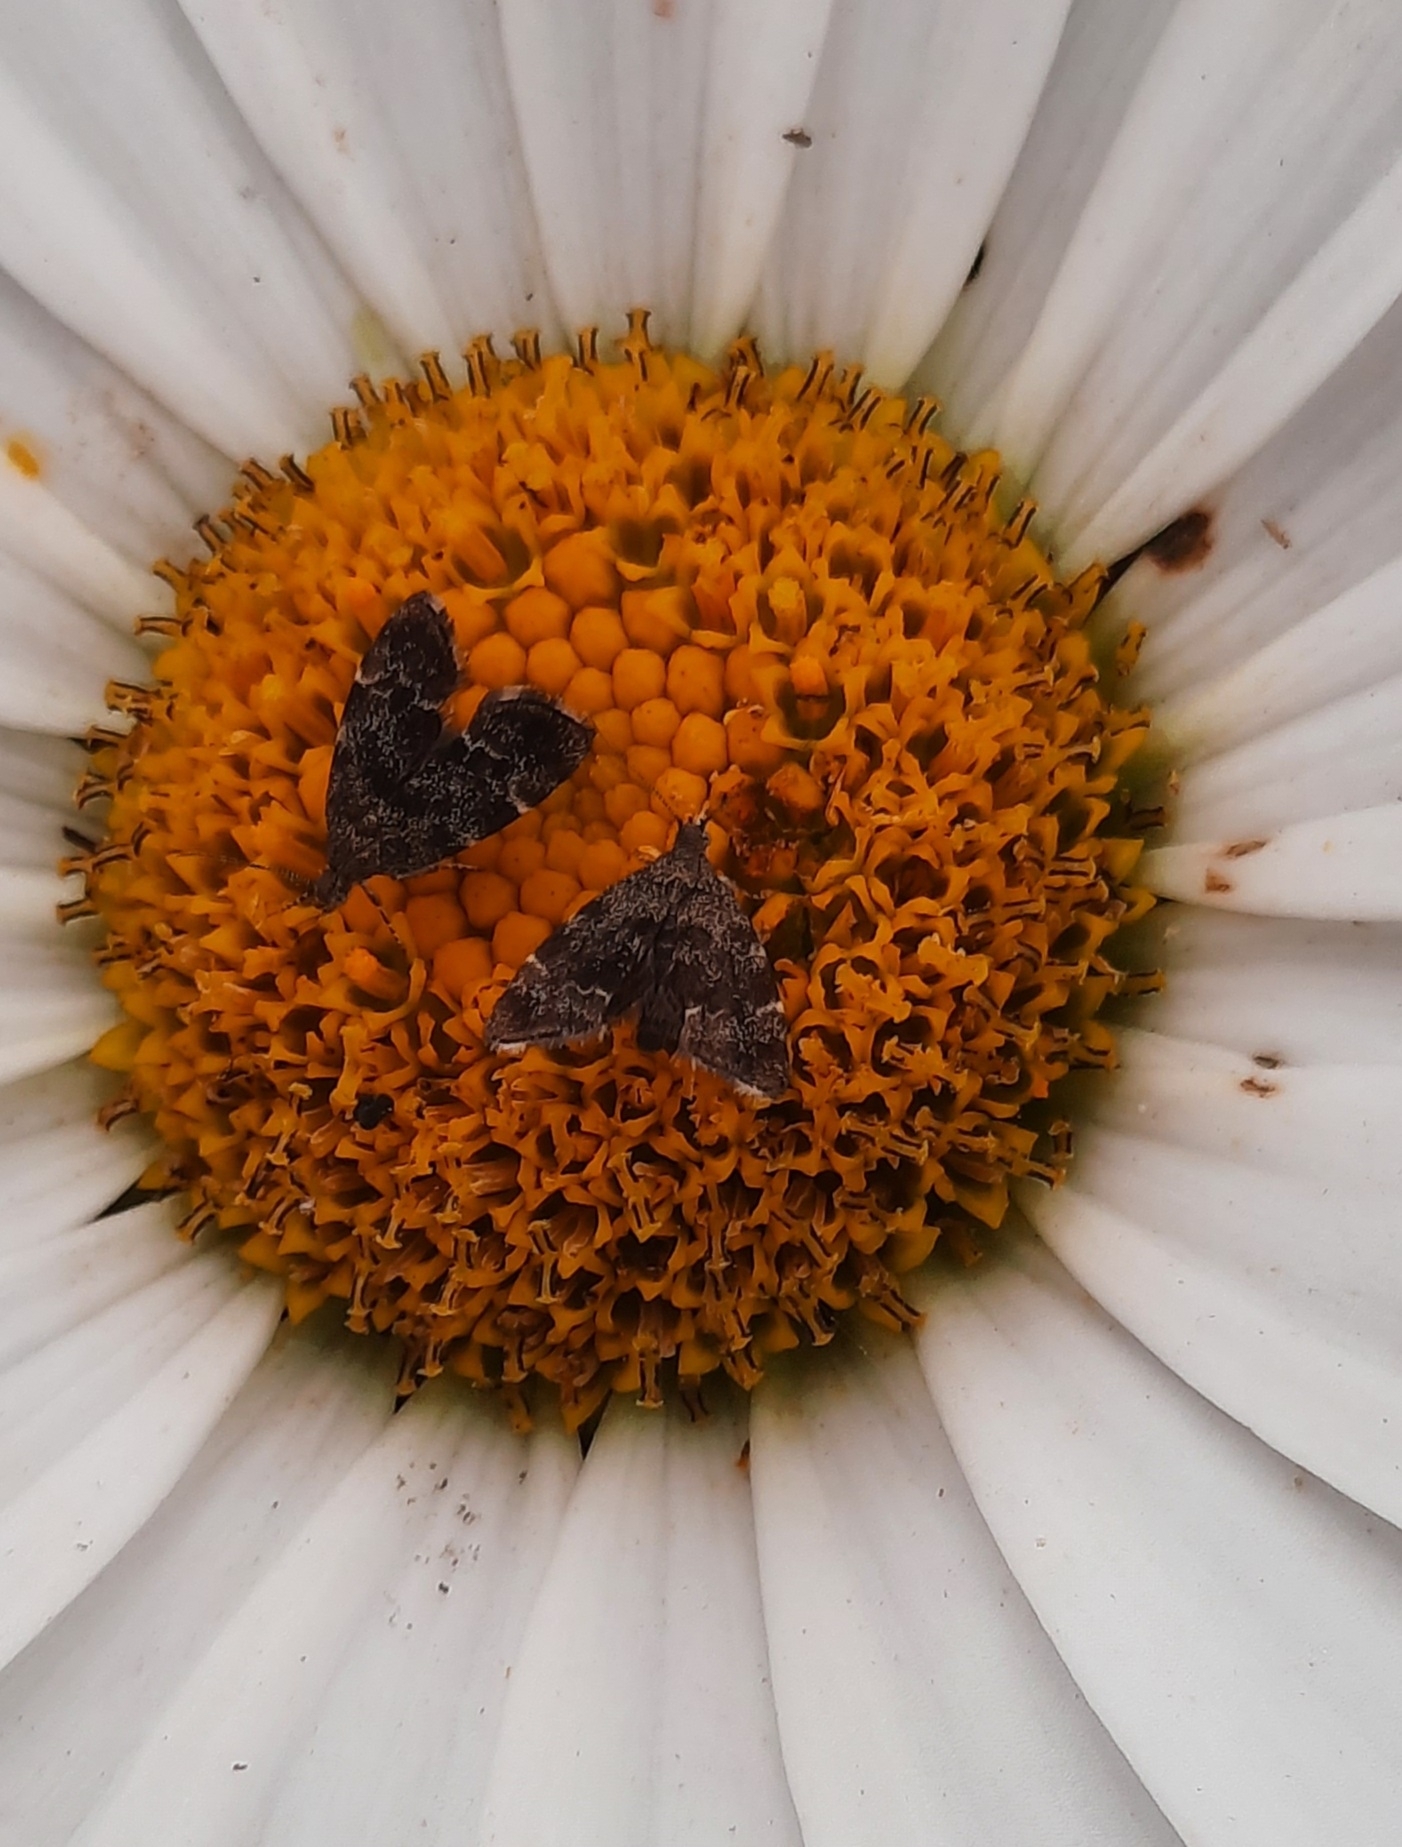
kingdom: Animalia
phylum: Arthropoda
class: Insecta
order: Lepidoptera
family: Choreutidae
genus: Anthophila
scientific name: Anthophila fabriciana
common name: Nettle-tap
